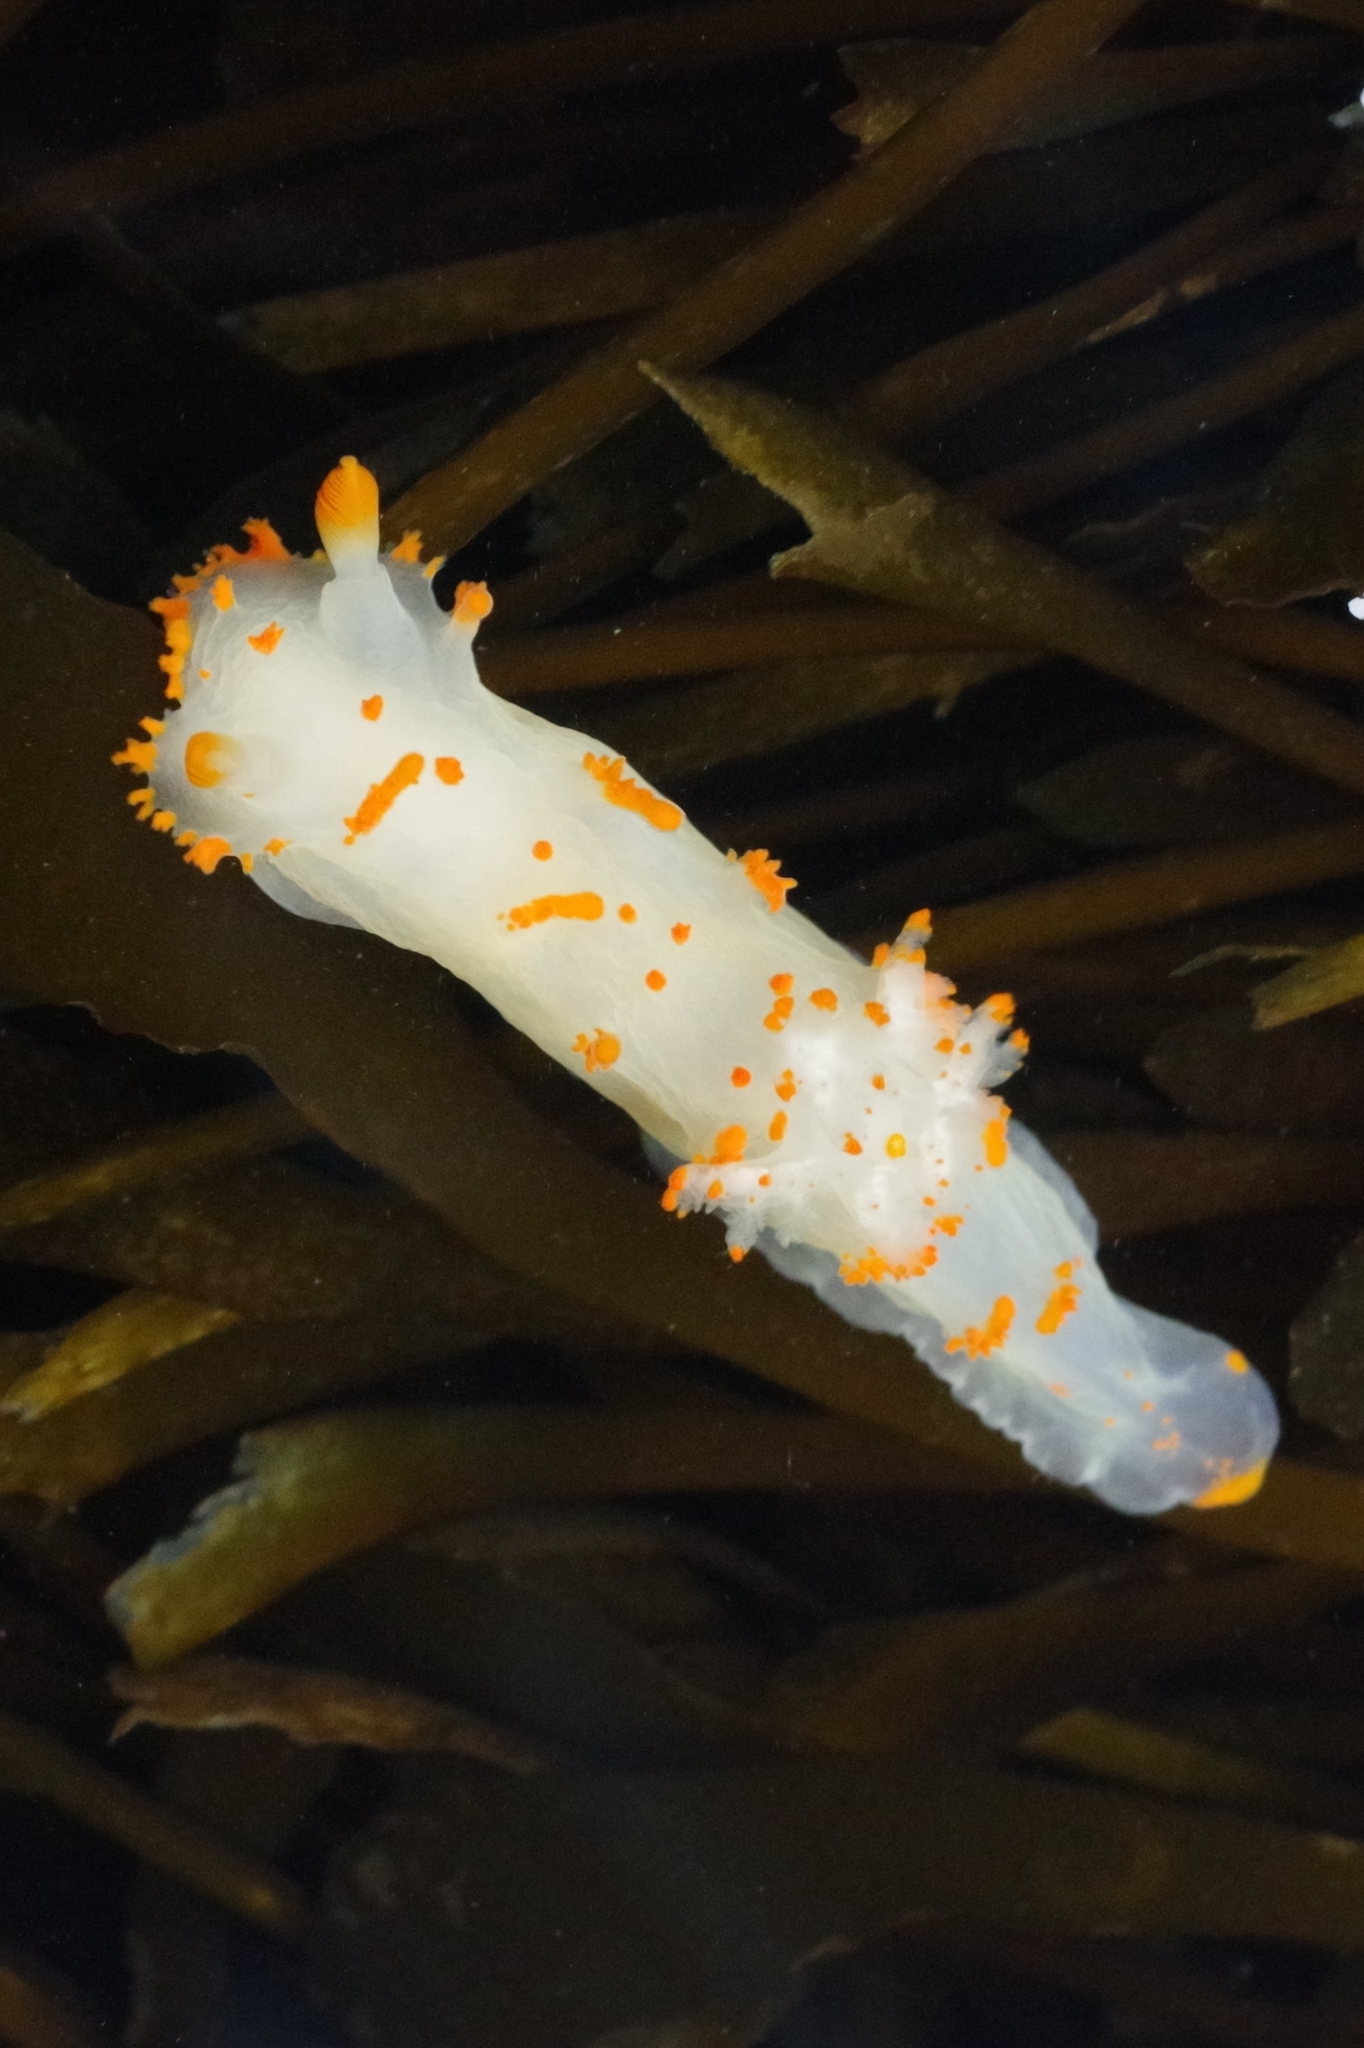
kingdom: Animalia
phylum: Mollusca
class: Gastropoda
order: Nudibranchia
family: Polyceridae
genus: Triopha
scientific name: Triopha modesta
